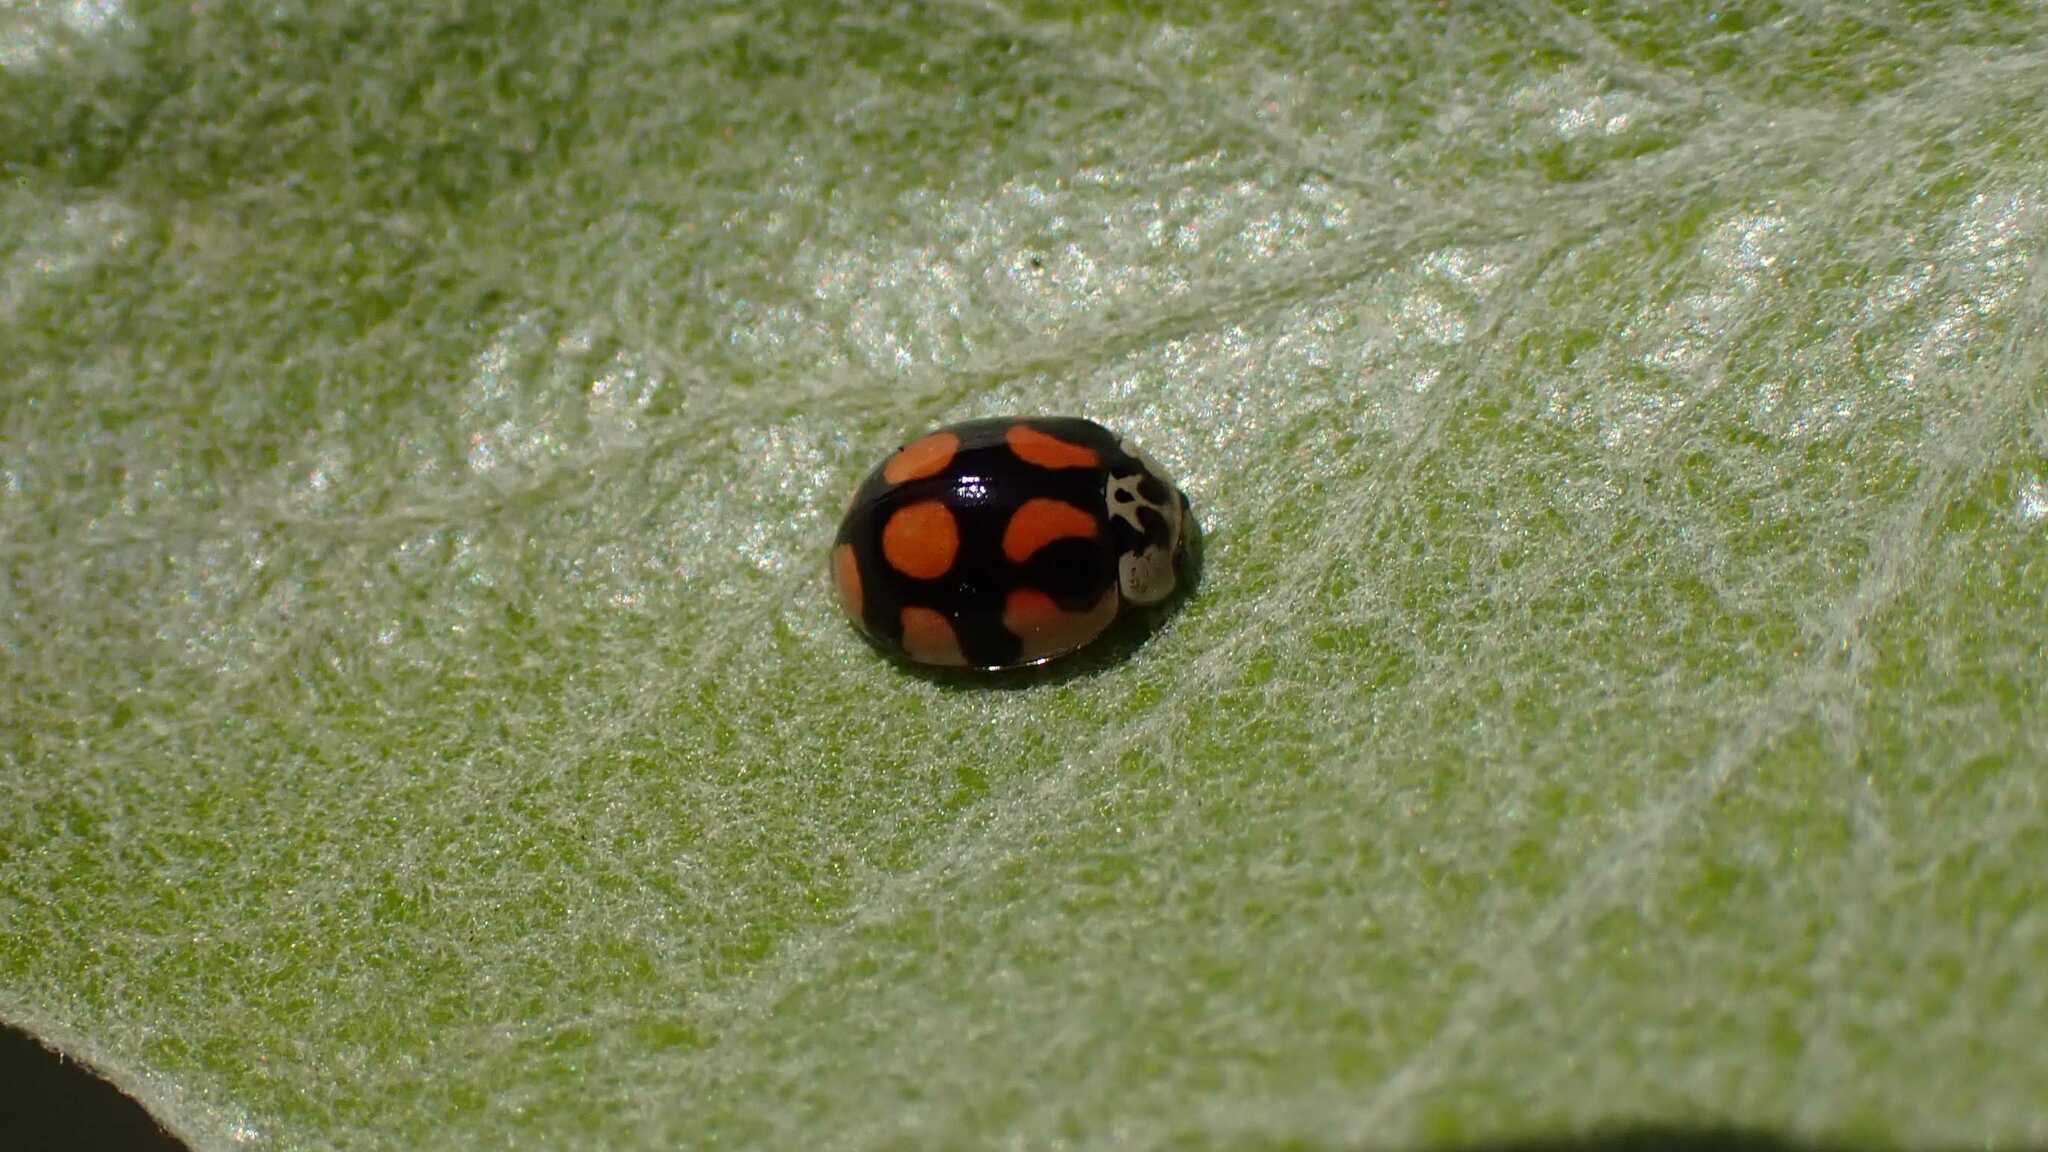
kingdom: Animalia
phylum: Arthropoda
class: Insecta
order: Coleoptera
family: Coccinellidae
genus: Adalia
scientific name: Adalia decempunctata
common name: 10-spot ladybird
